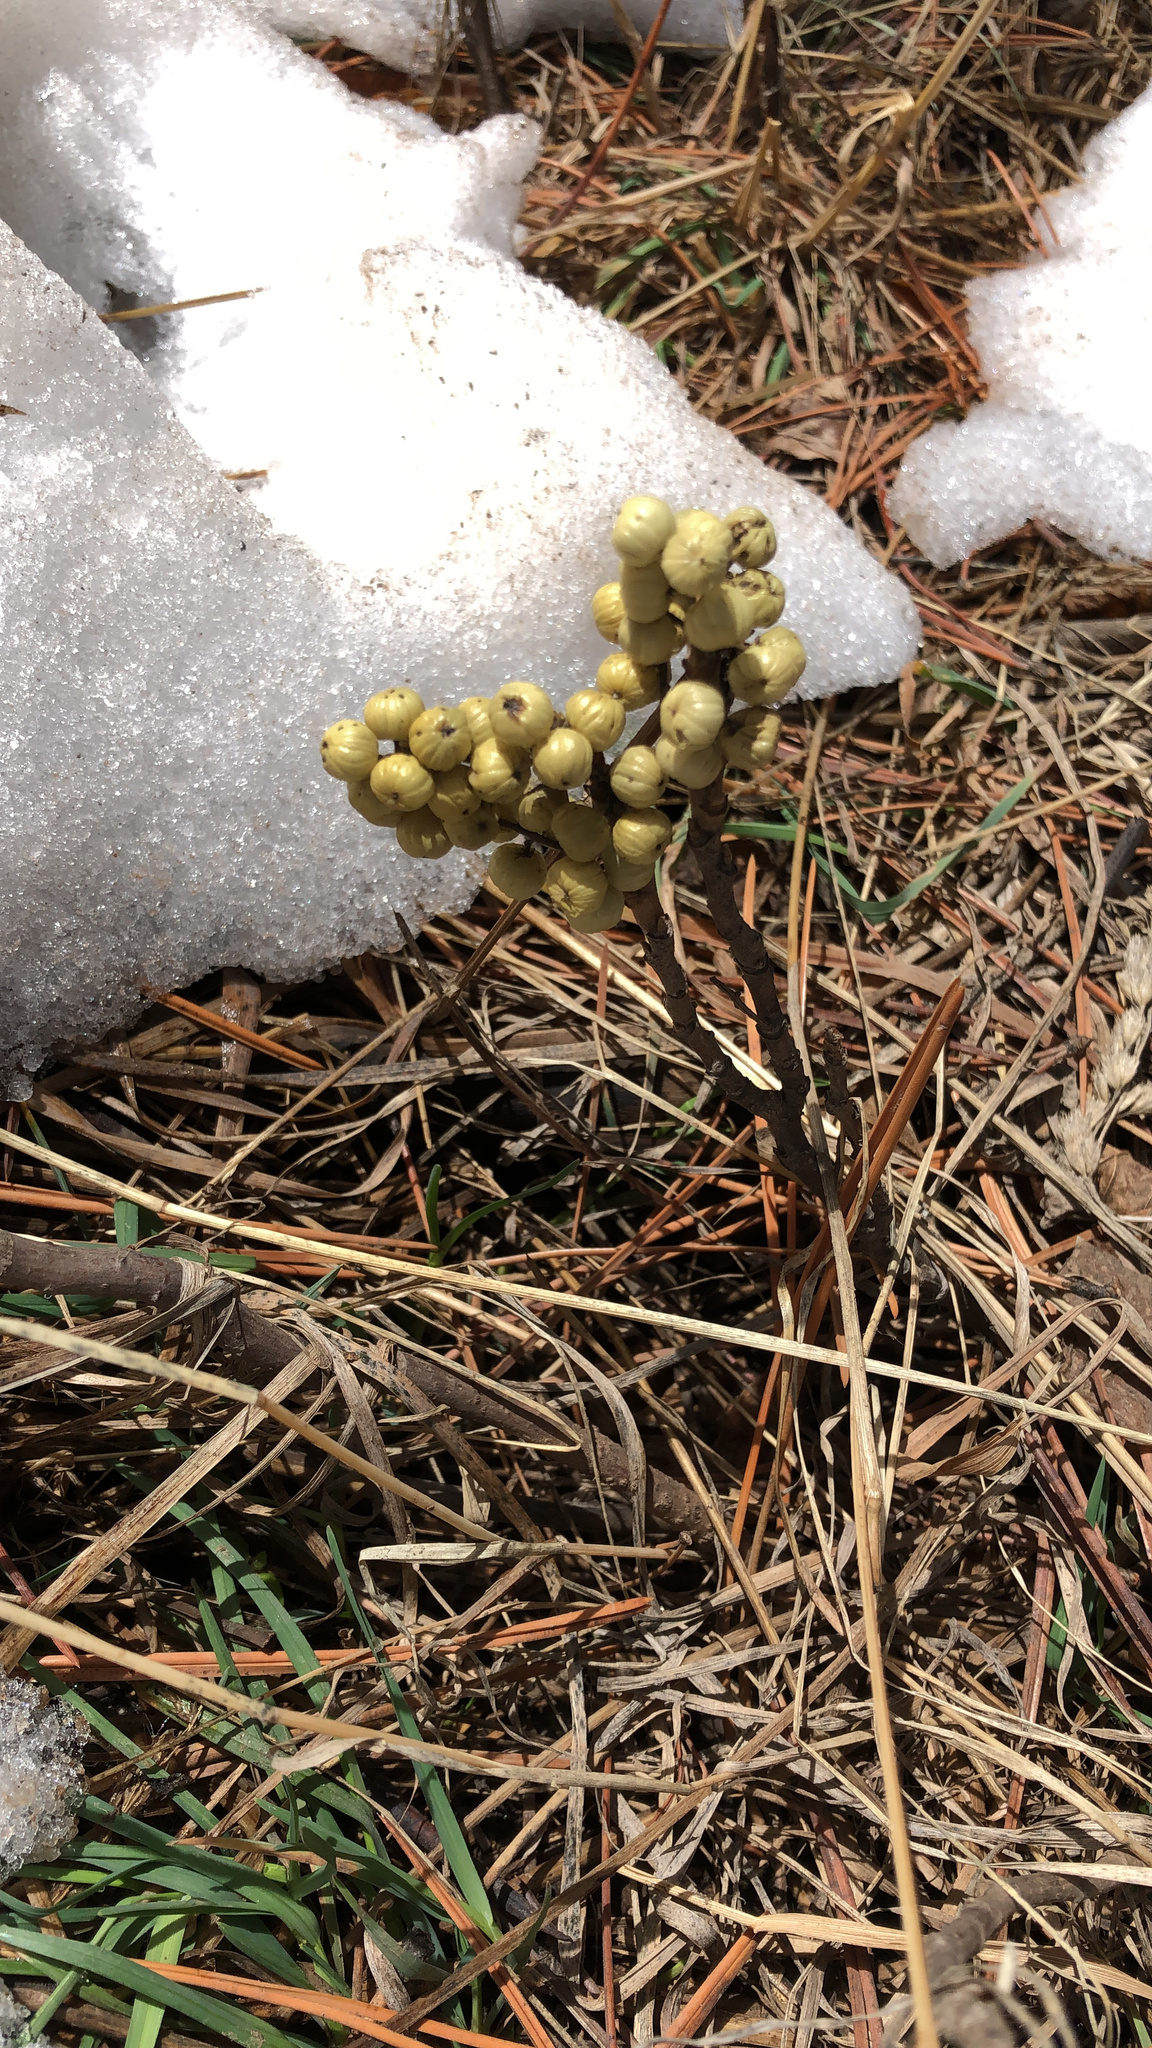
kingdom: Plantae
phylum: Tracheophyta
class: Magnoliopsida
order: Sapindales
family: Anacardiaceae
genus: Toxicodendron
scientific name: Toxicodendron rydbergii
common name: Rydberg's poison-ivy
